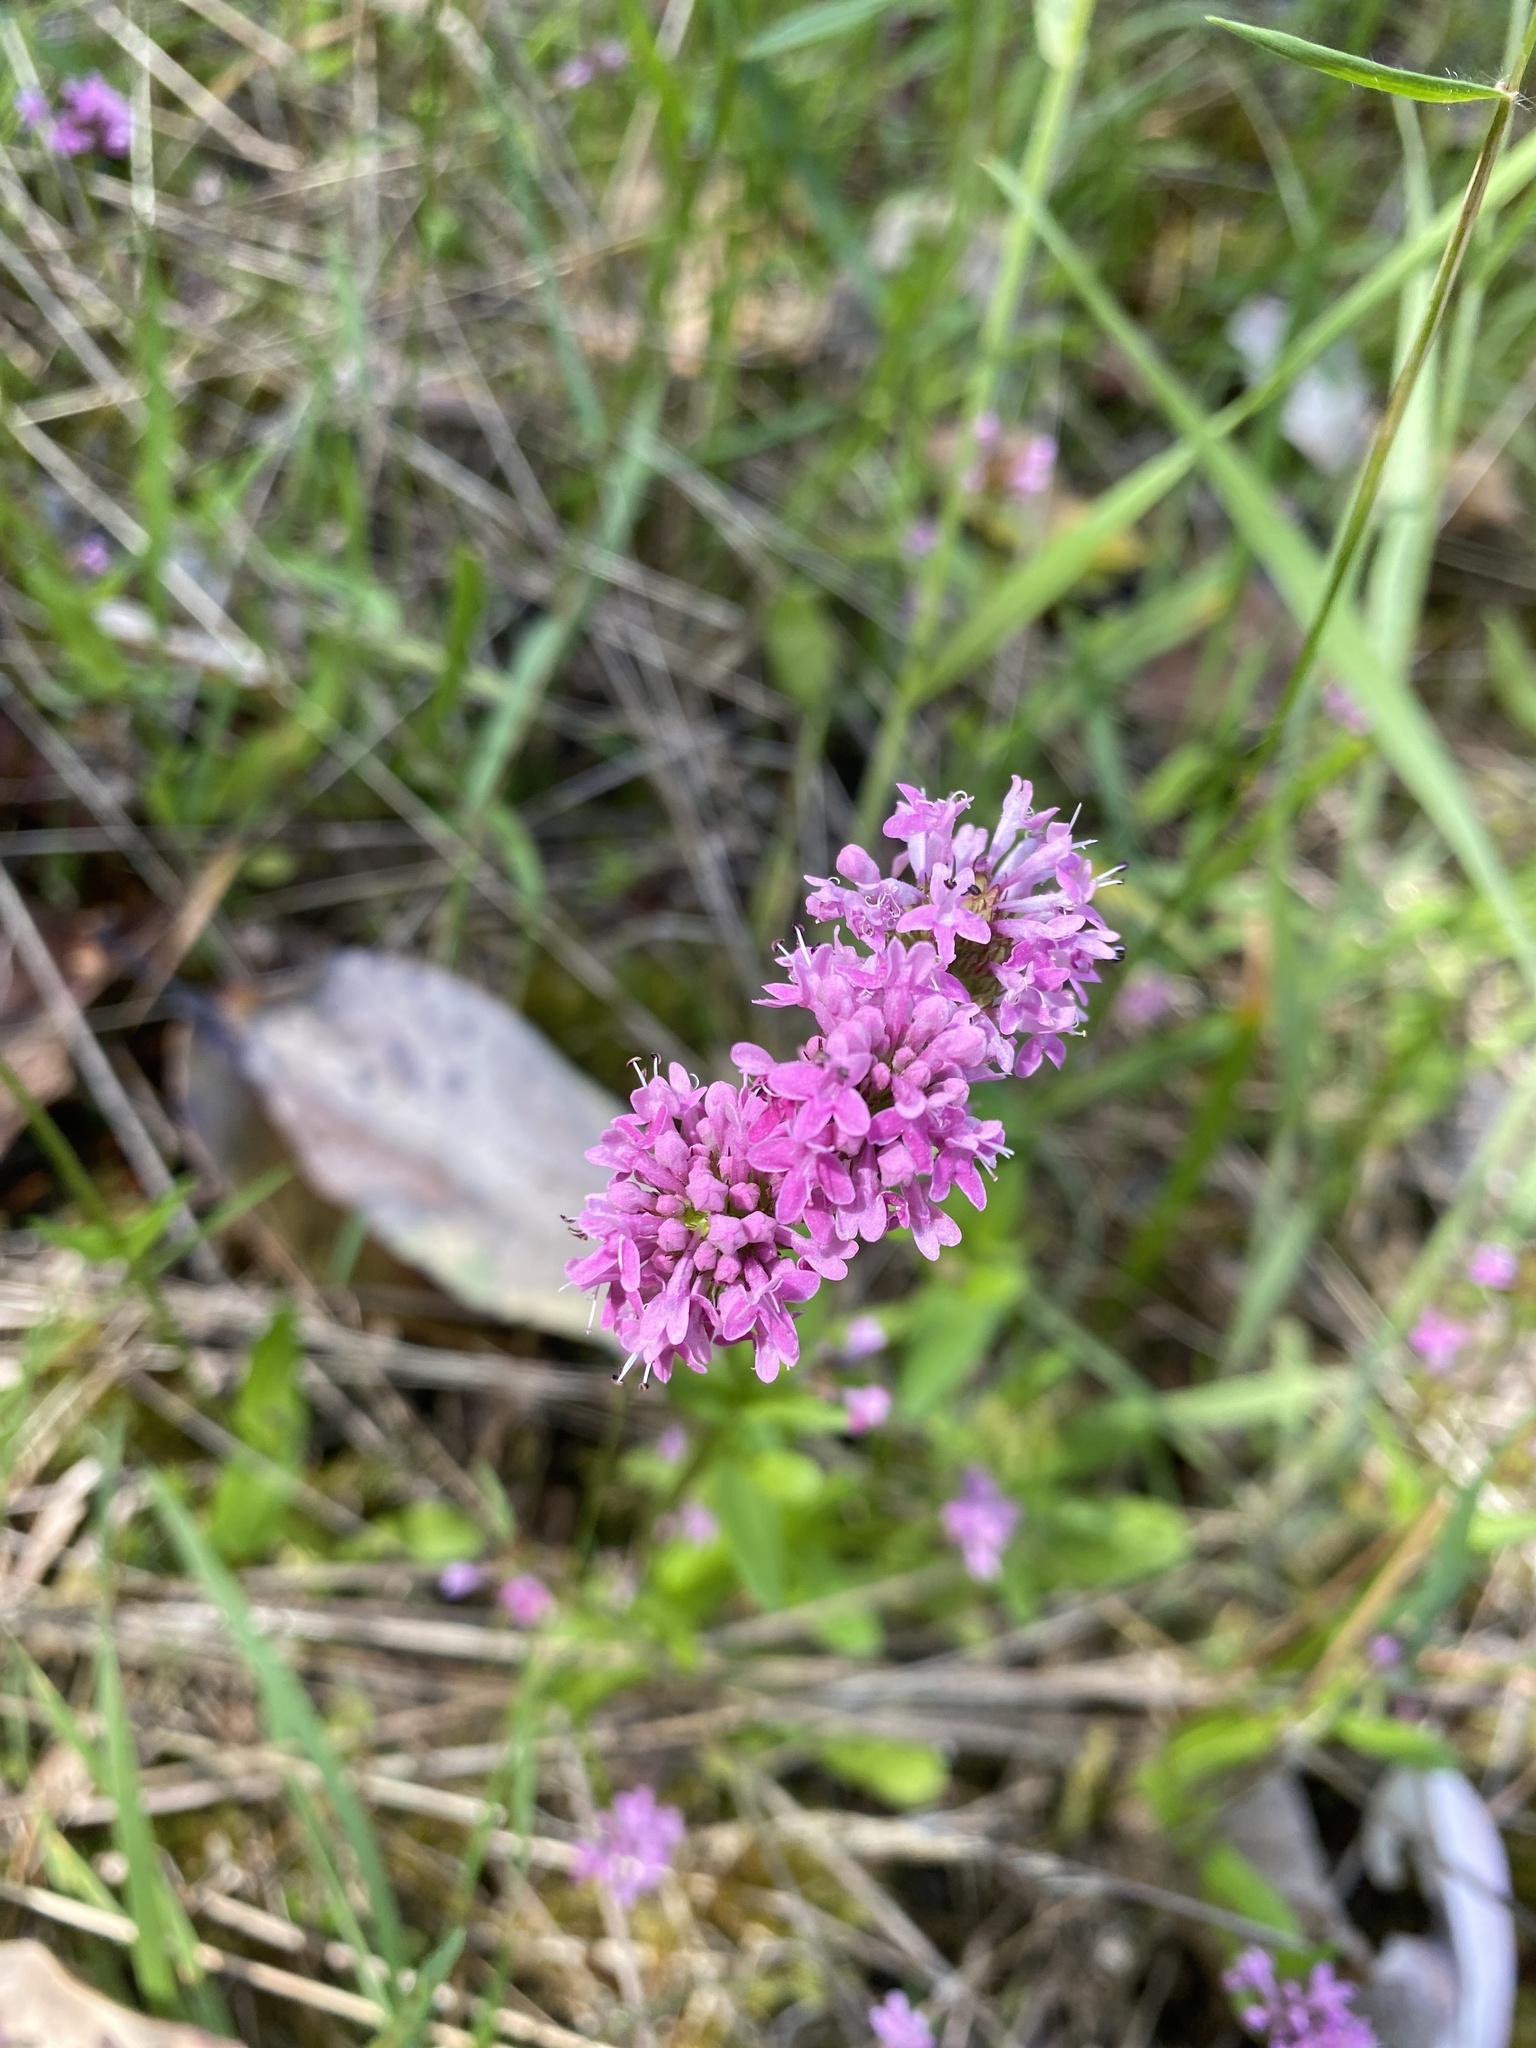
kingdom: Plantae
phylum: Tracheophyta
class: Magnoliopsida
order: Dipsacales
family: Caprifoliaceae
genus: Plectritis
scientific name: Plectritis congesta
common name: Pink plectritis
